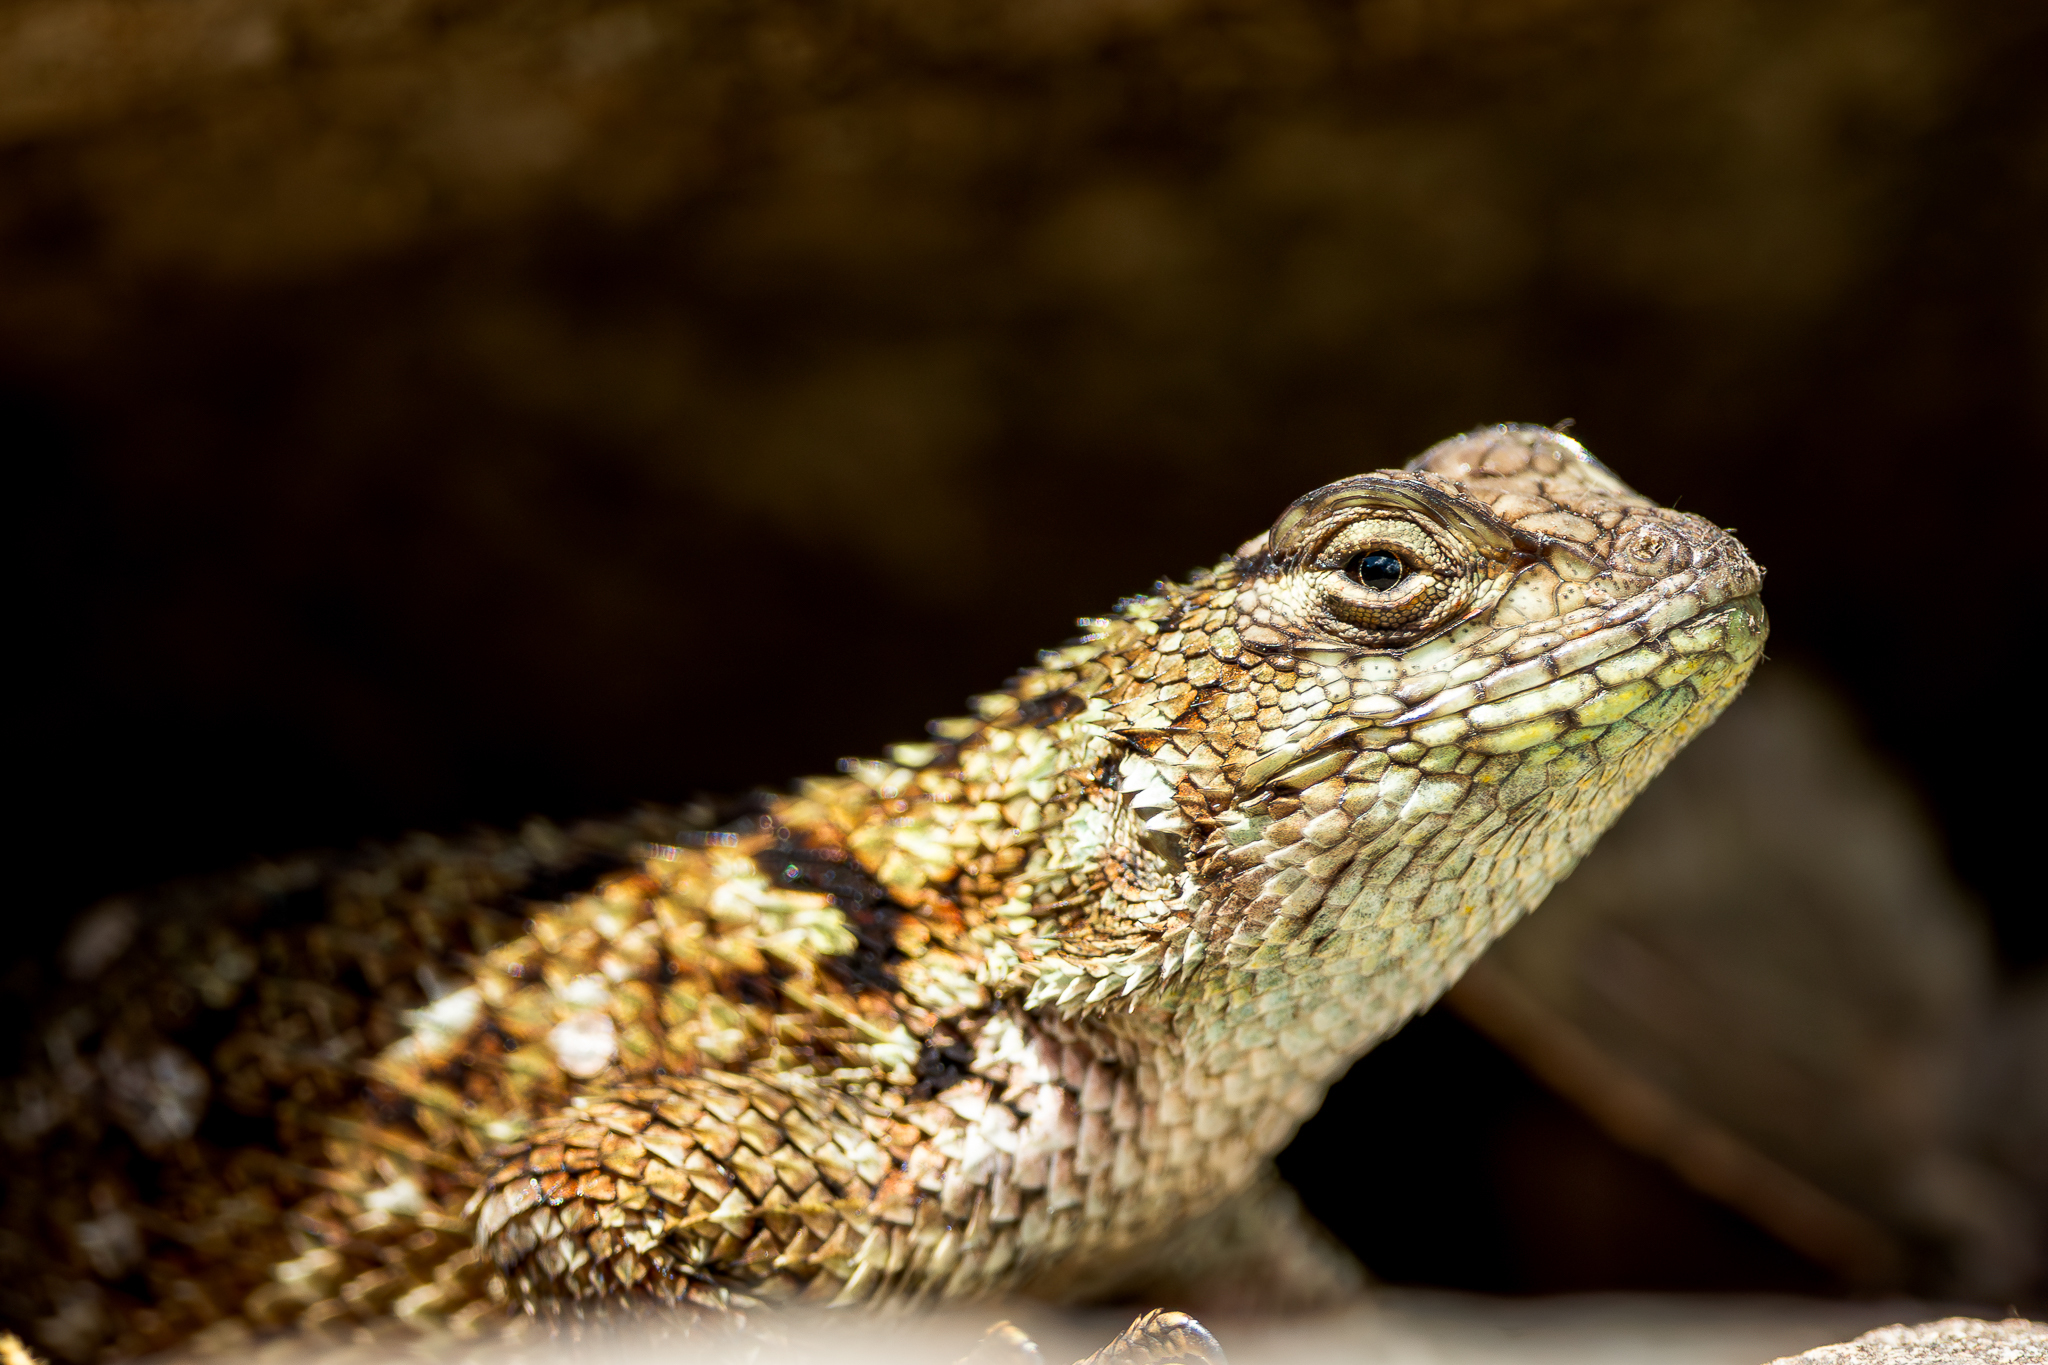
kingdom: Animalia
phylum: Chordata
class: Squamata
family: Phrynosomatidae
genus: Sceloporus
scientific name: Sceloporus malachiticus
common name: Green spiny lizard
